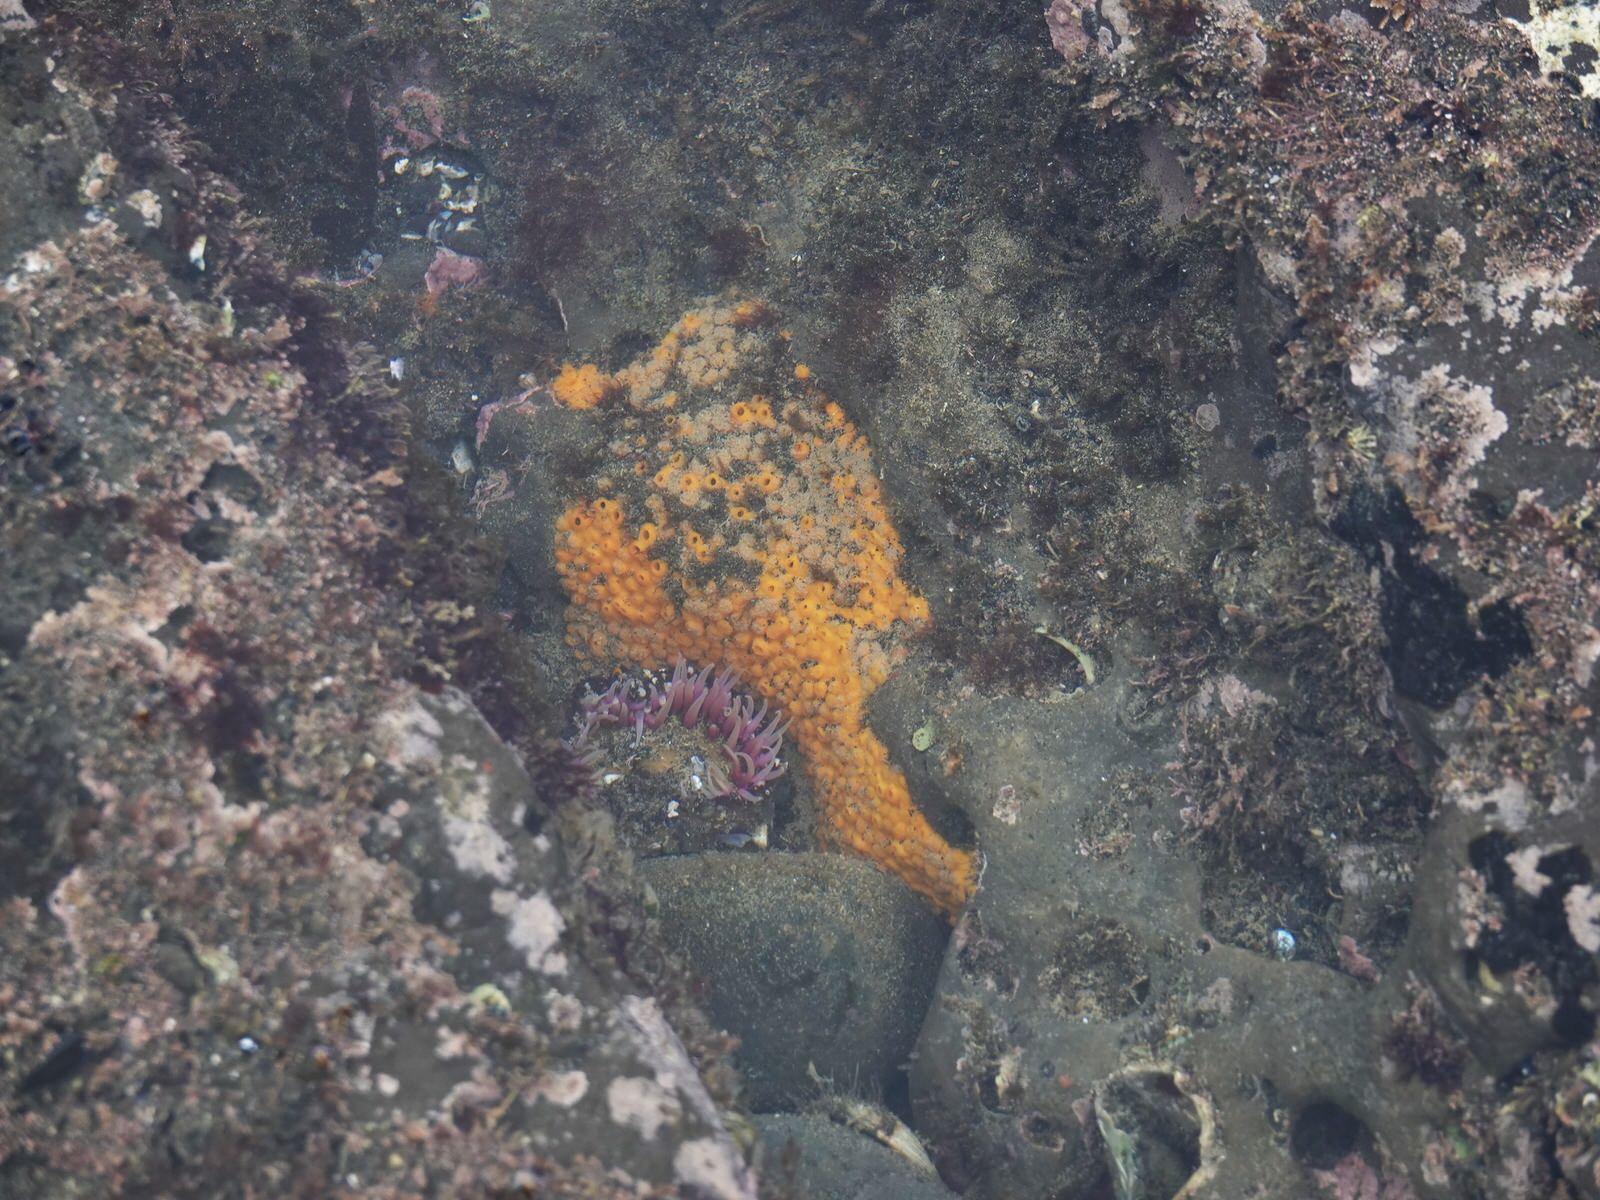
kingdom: Animalia
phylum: Porifera
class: Demospongiae
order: Clionaida
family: Clionaidae
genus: Cliona
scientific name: Cliona celata
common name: Boring sponge
